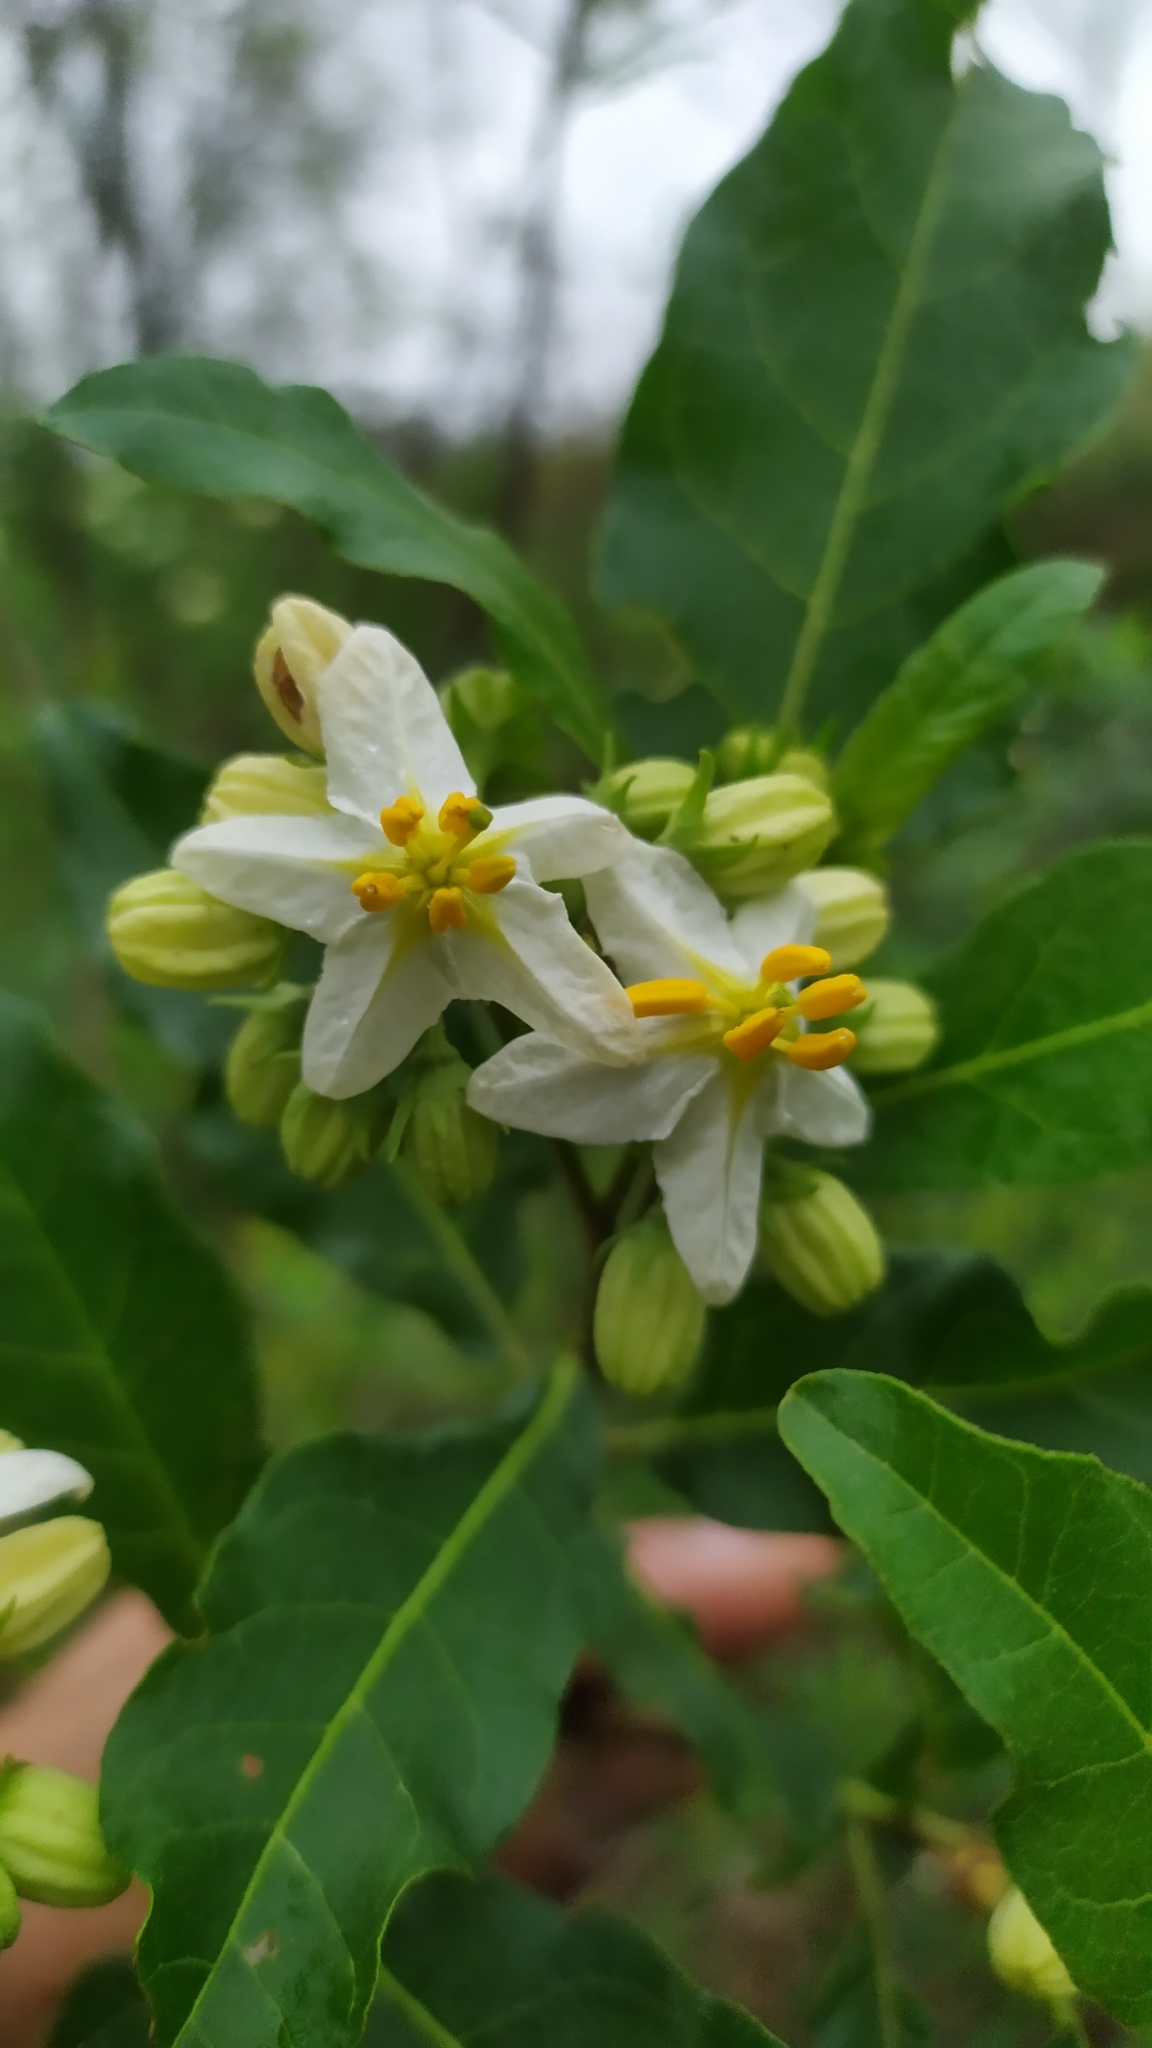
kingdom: Plantae
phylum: Tracheophyta
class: Magnoliopsida
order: Solanales
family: Solanaceae
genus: Solanum
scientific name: Solanum bonariense
